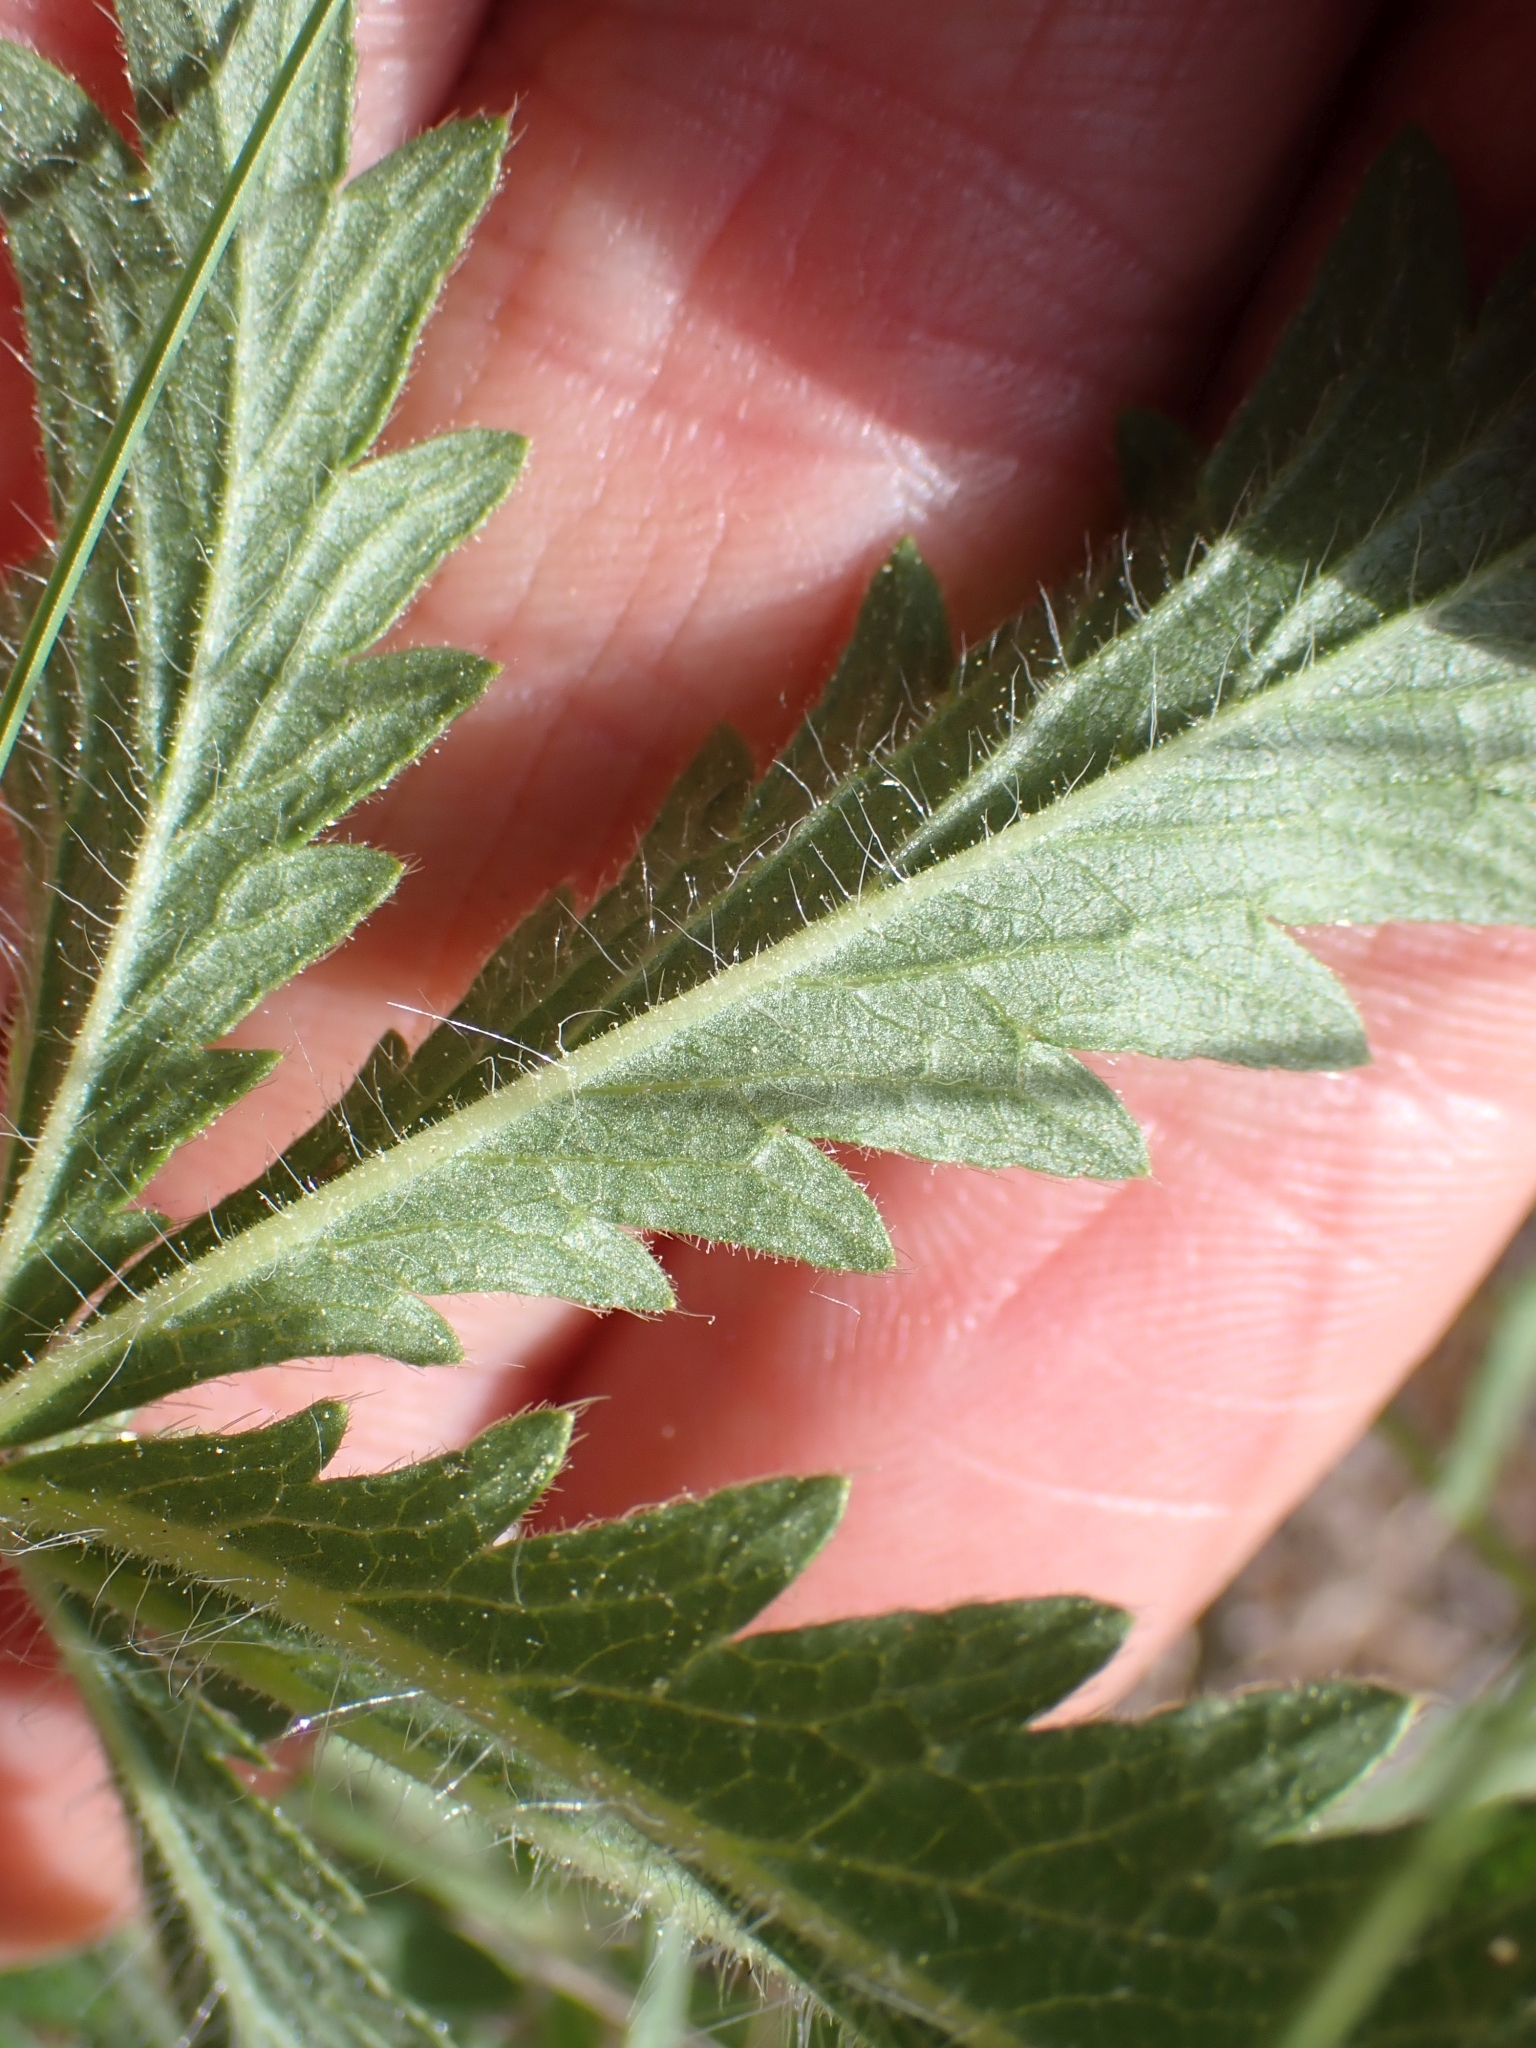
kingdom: Plantae
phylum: Tracheophyta
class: Magnoliopsida
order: Rosales
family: Rosaceae
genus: Potentilla
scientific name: Potentilla recta
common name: Sulphur cinquefoil
